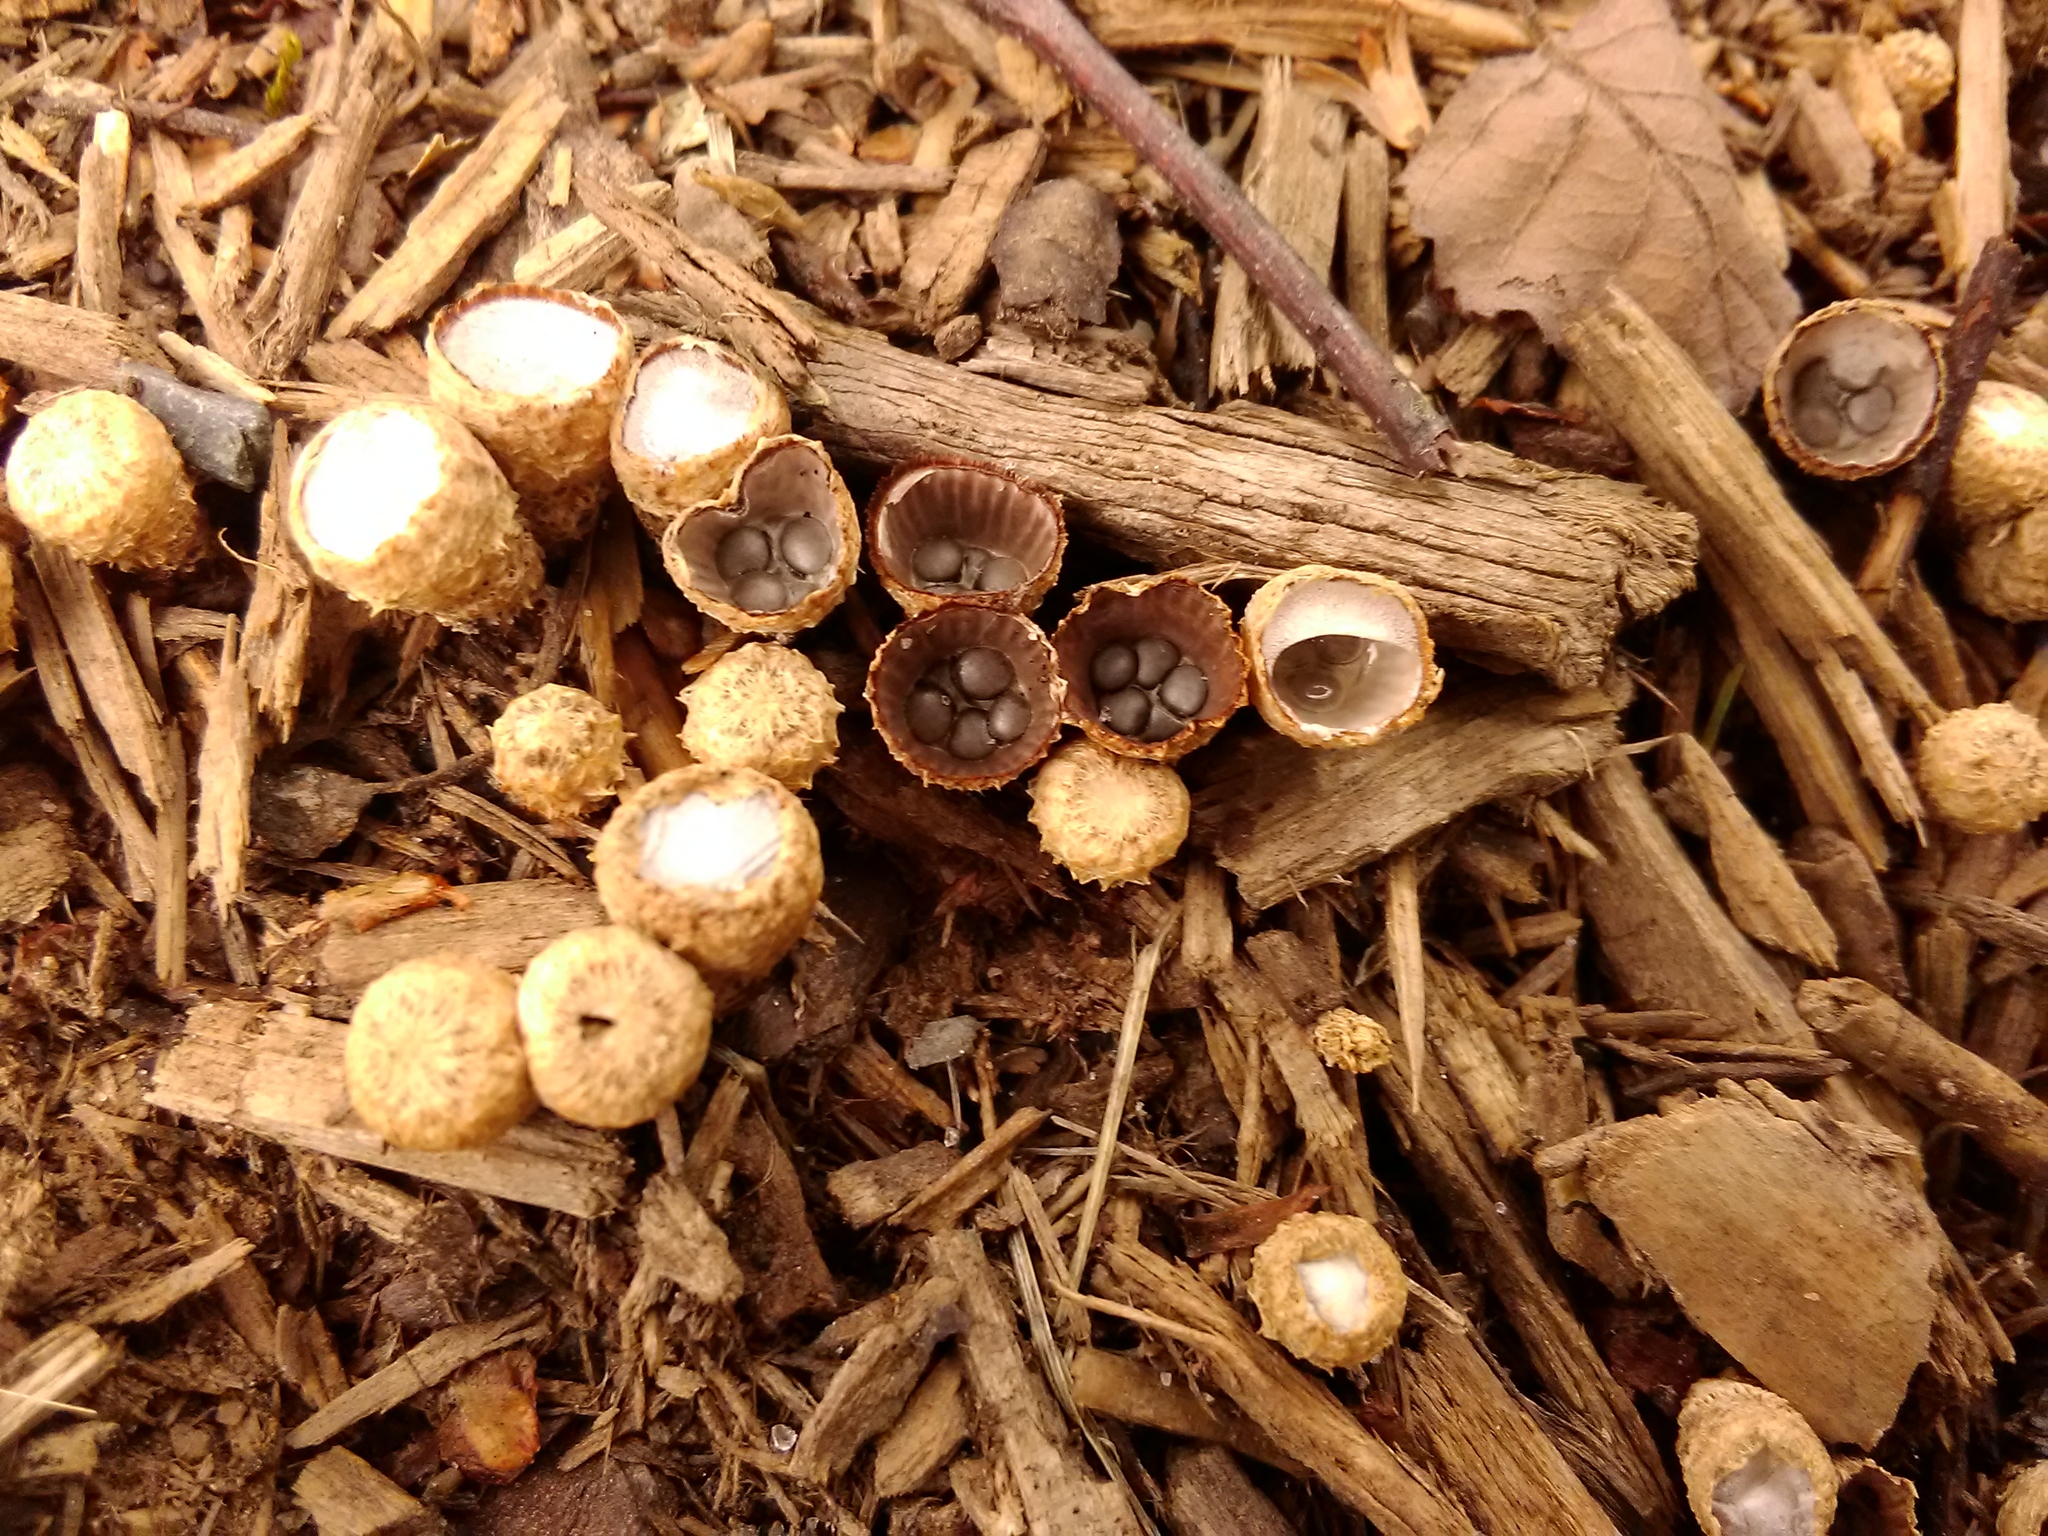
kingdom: Fungi
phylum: Basidiomycota
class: Agaricomycetes
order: Agaricales
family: Agaricaceae
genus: Cyathus
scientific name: Cyathus striatus
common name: Fluted bird's nest
